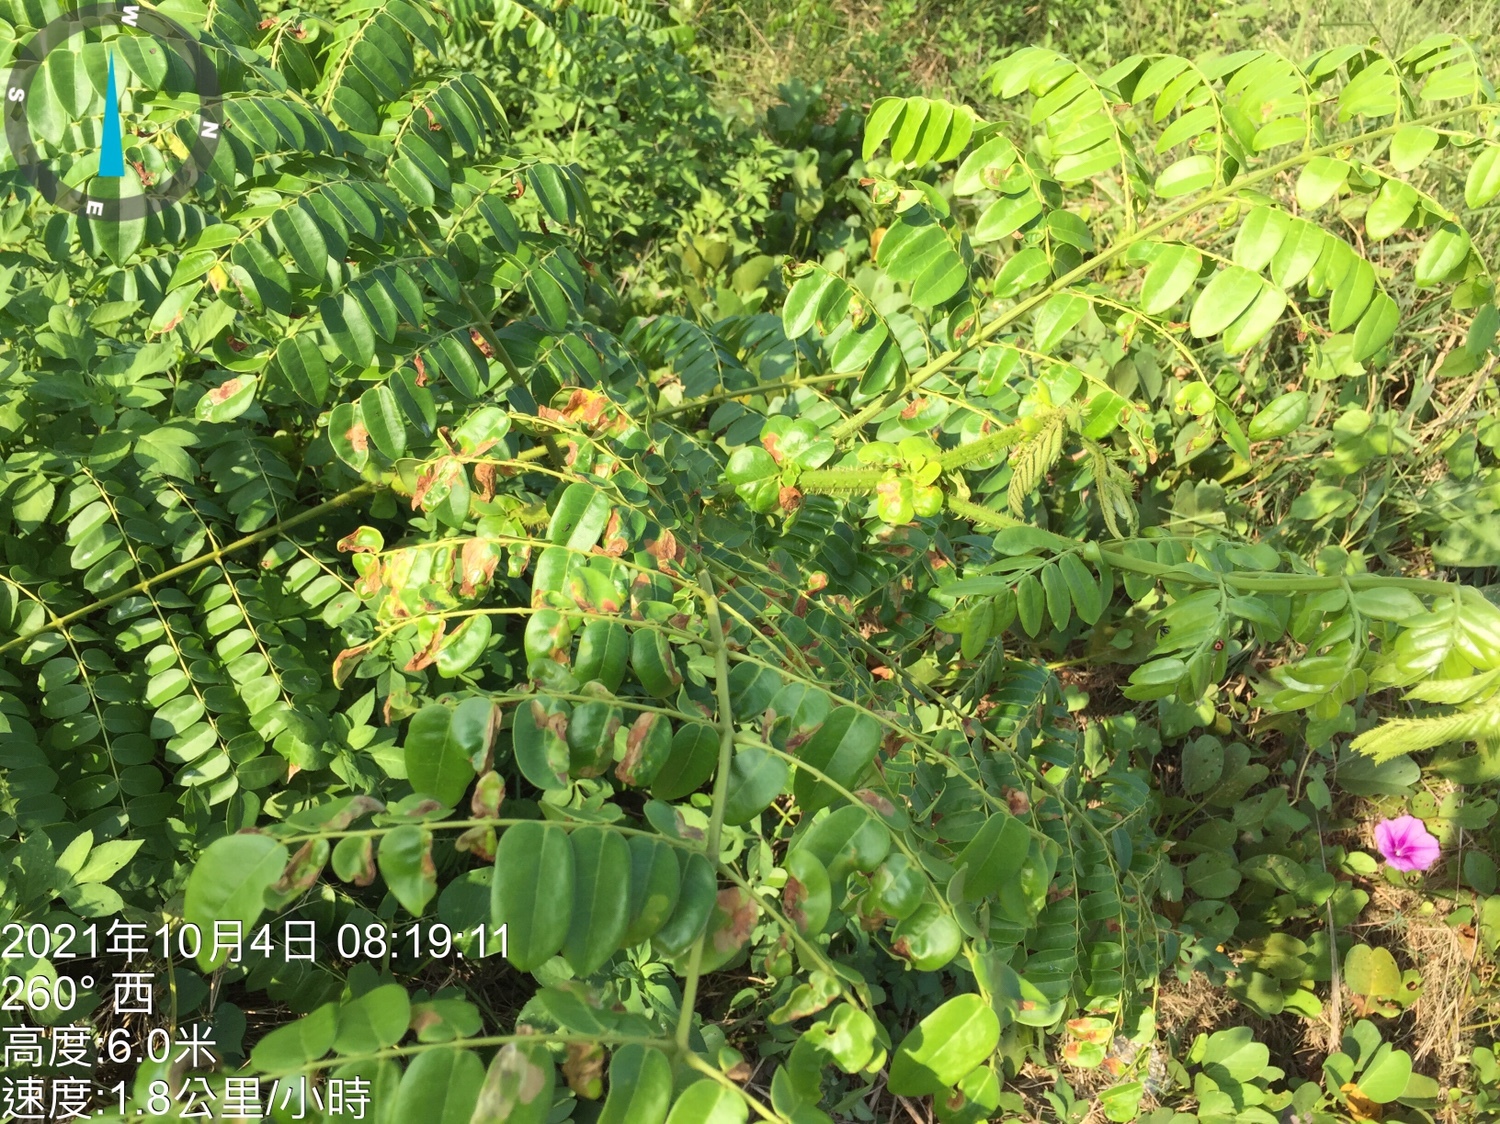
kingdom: Plantae
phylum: Tracheophyta
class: Magnoliopsida
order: Fabales
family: Fabaceae
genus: Guilandina
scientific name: Guilandina bonduc
